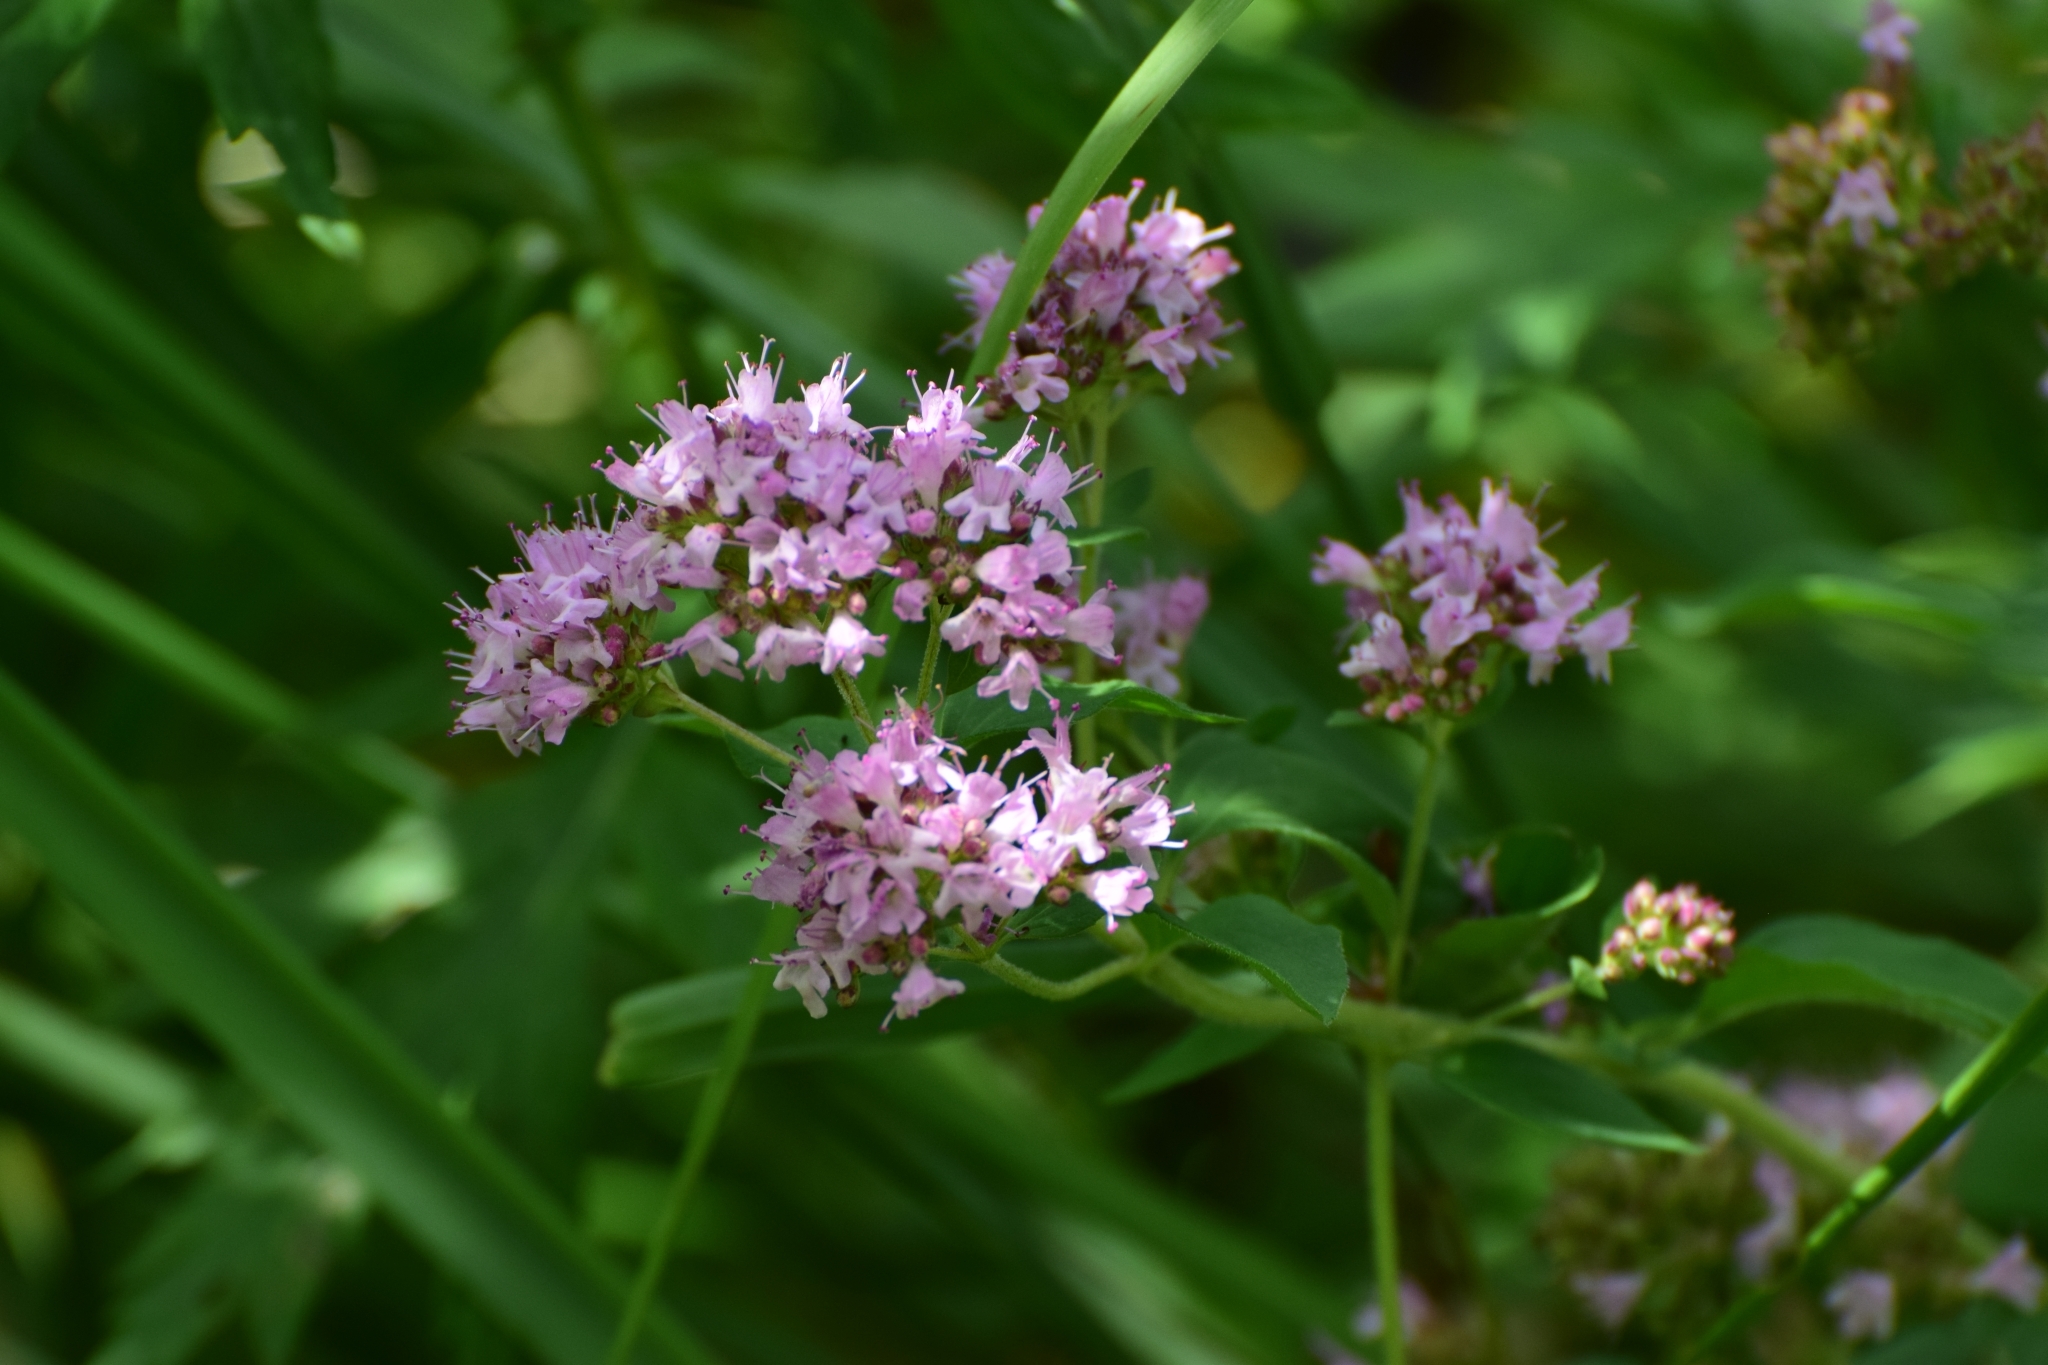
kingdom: Plantae
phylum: Tracheophyta
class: Magnoliopsida
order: Lamiales
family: Lamiaceae
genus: Origanum
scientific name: Origanum vulgare
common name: Wild marjoram
